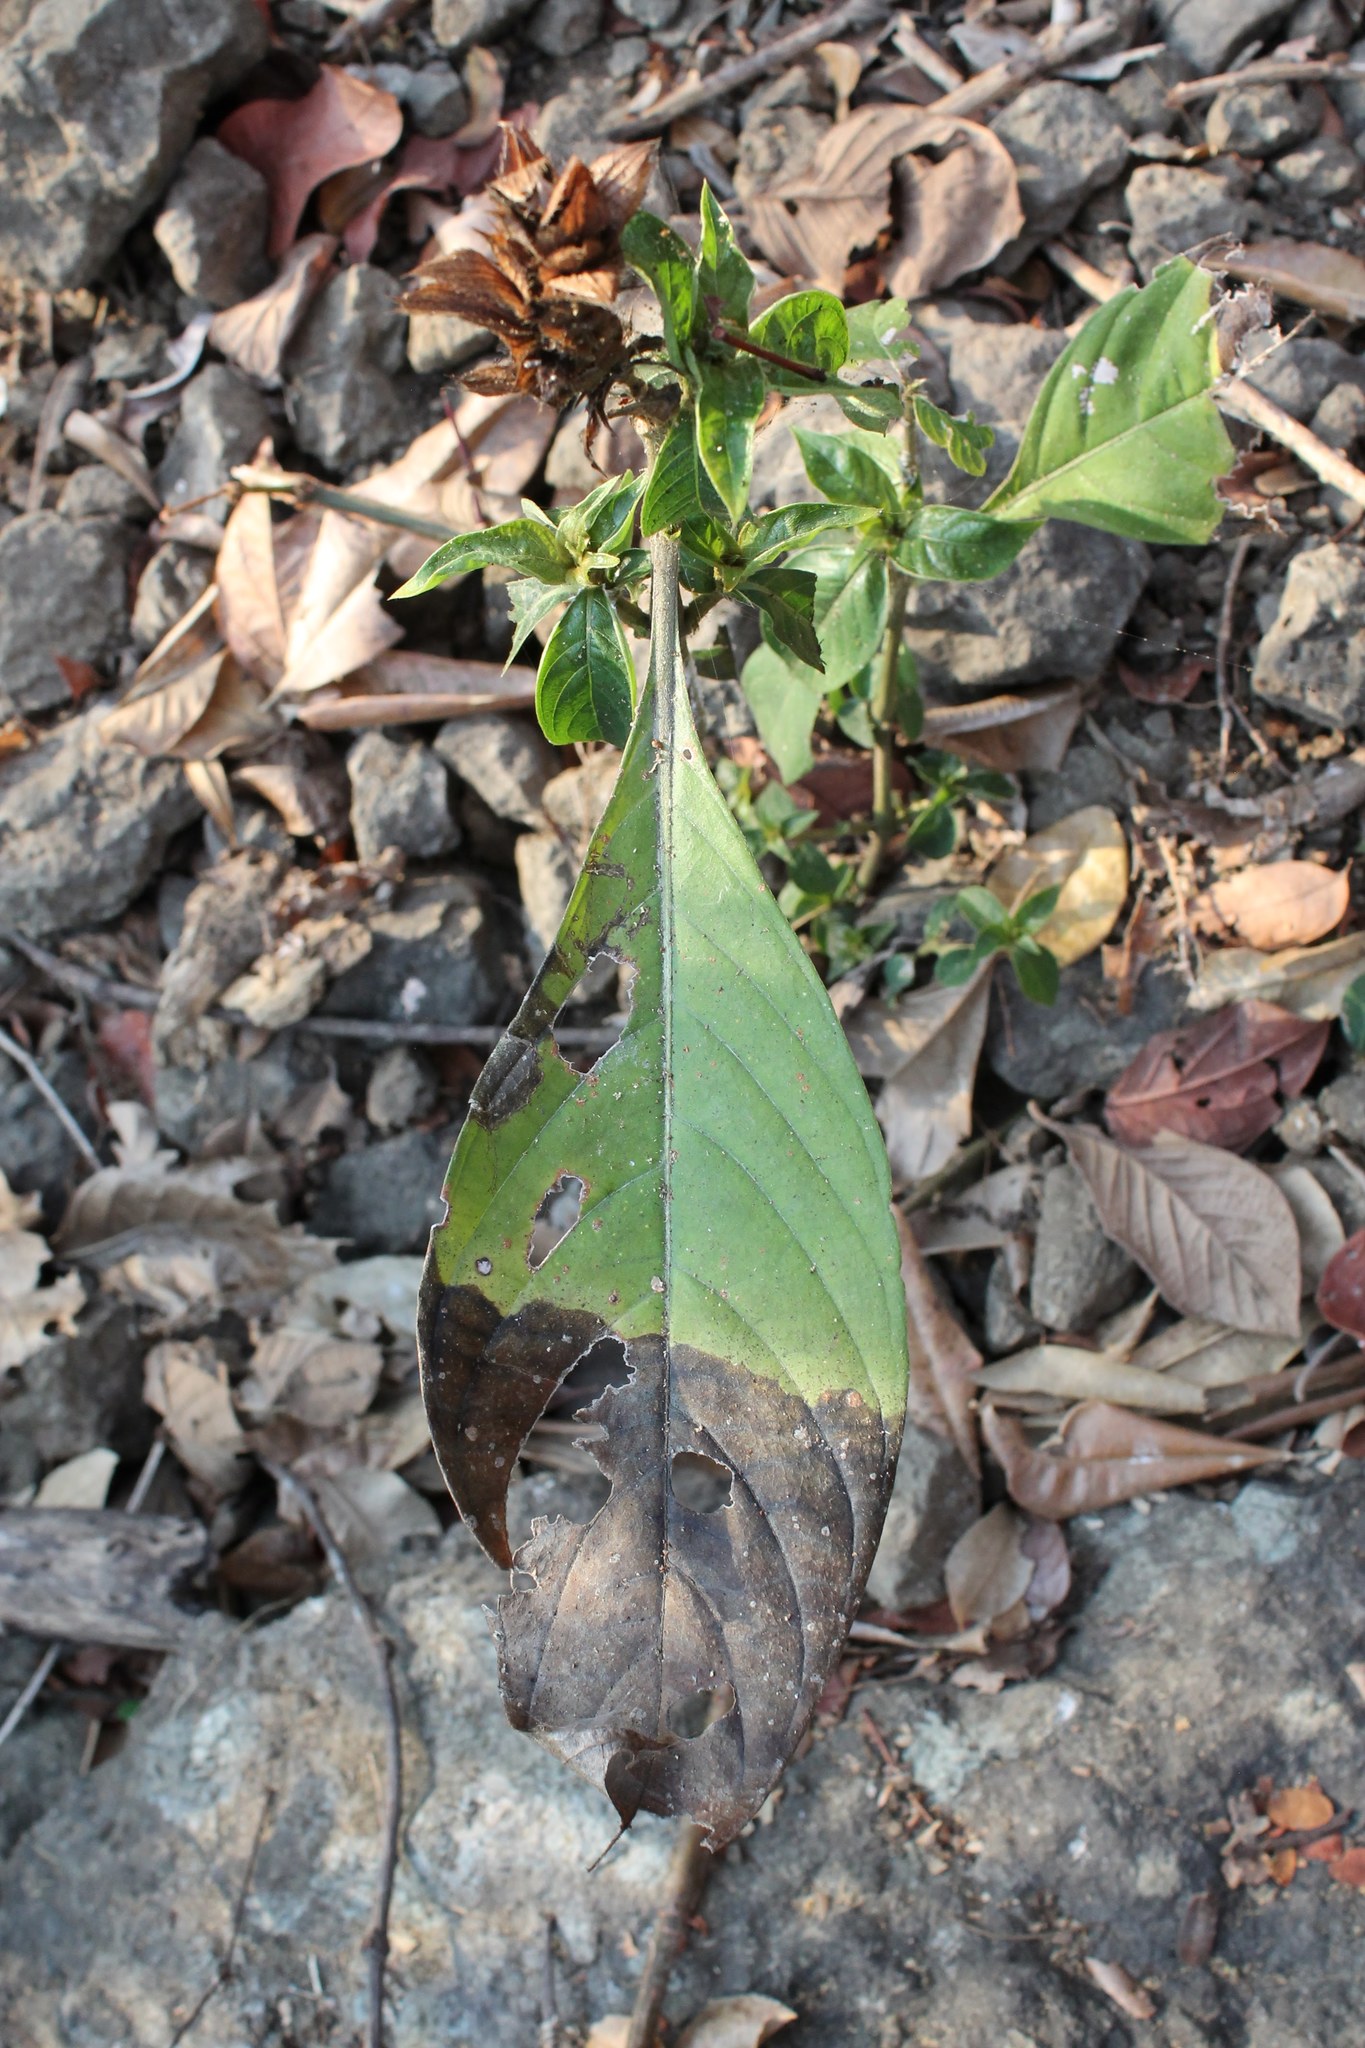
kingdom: Plantae
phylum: Tracheophyta
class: Magnoliopsida
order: Lamiales
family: Acanthaceae
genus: Barleria
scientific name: Barleria oenotheroides
